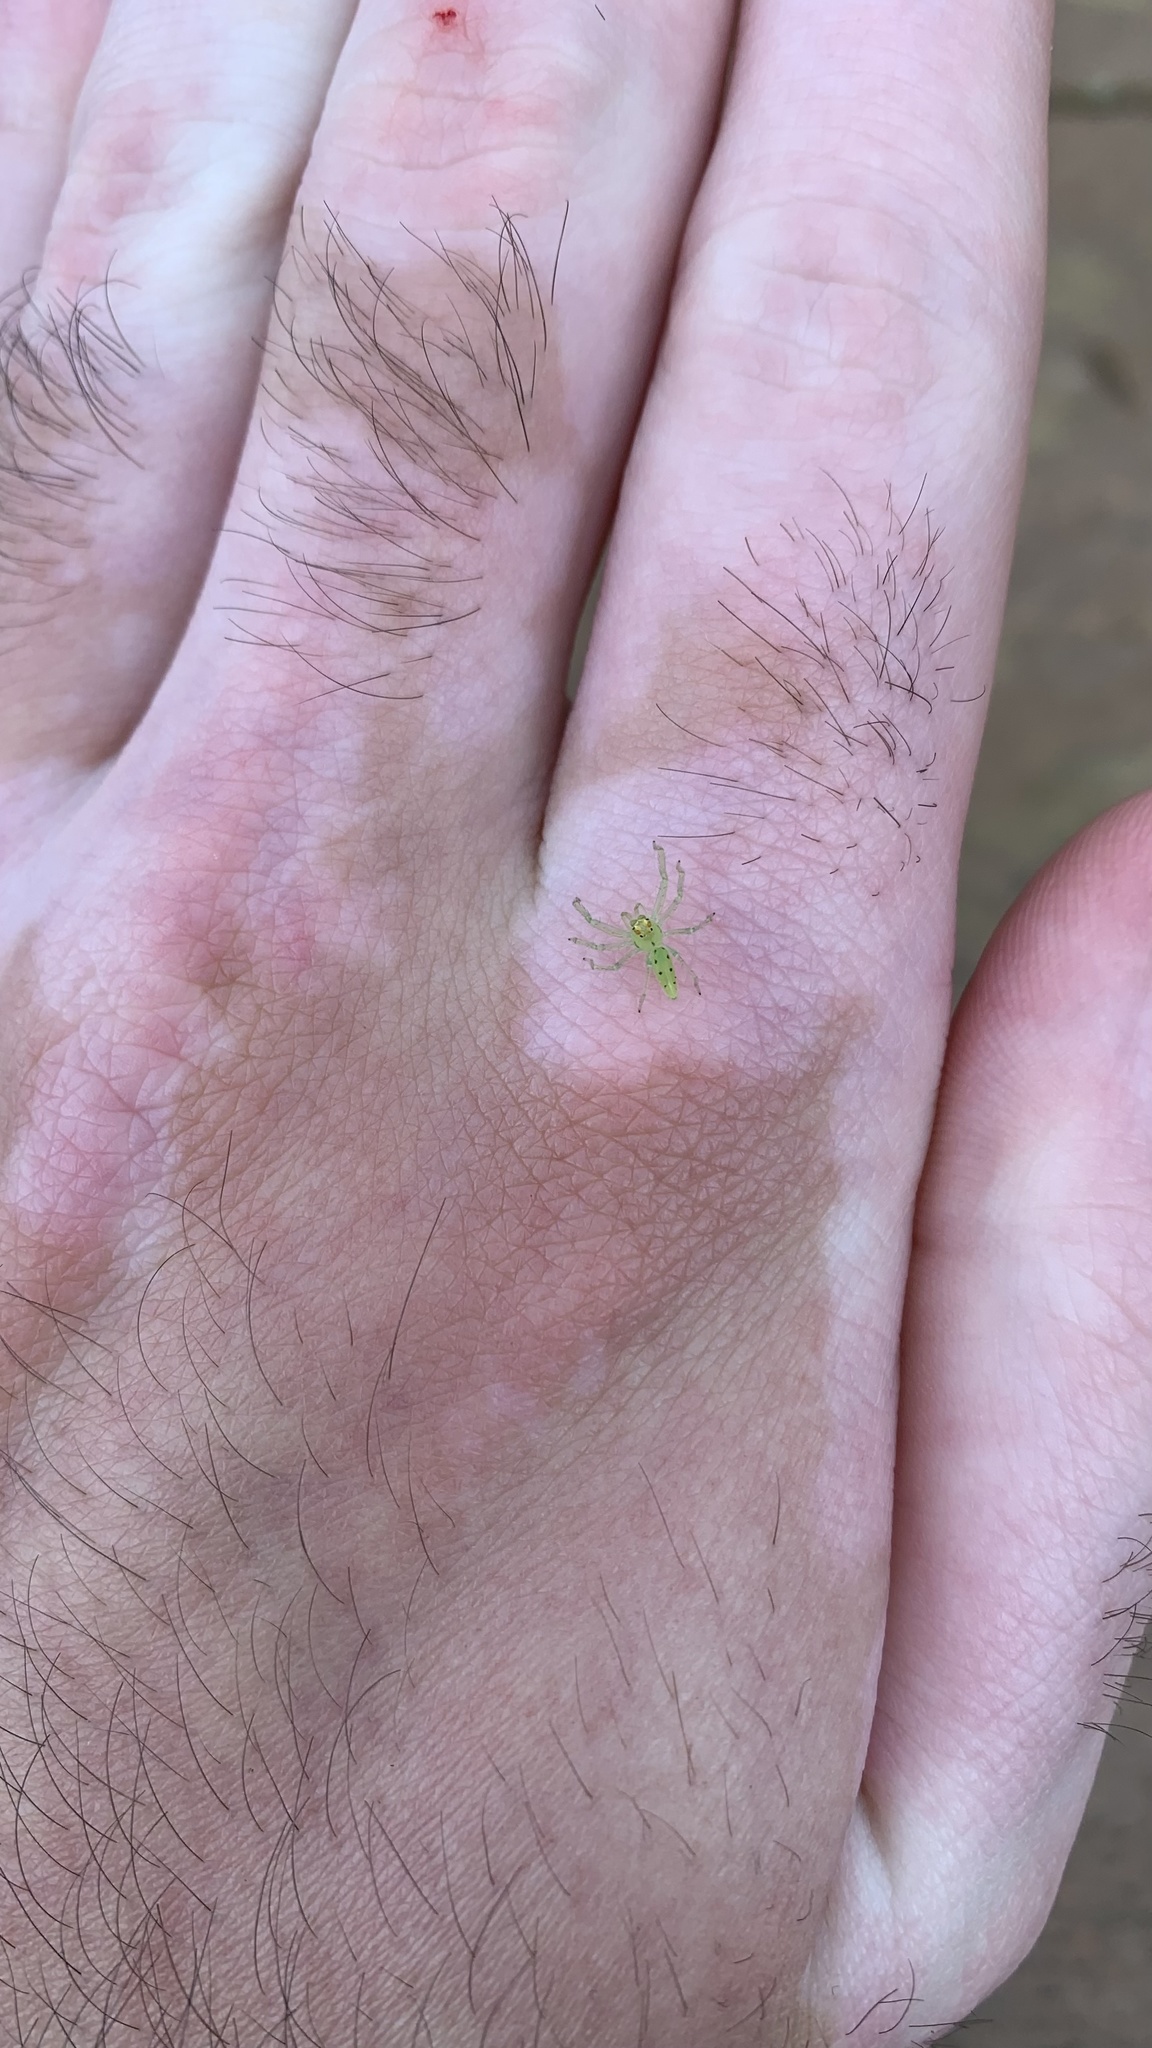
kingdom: Animalia
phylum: Arthropoda
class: Arachnida
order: Araneae
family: Salticidae
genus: Lyssomanes
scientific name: Lyssomanes viridis
